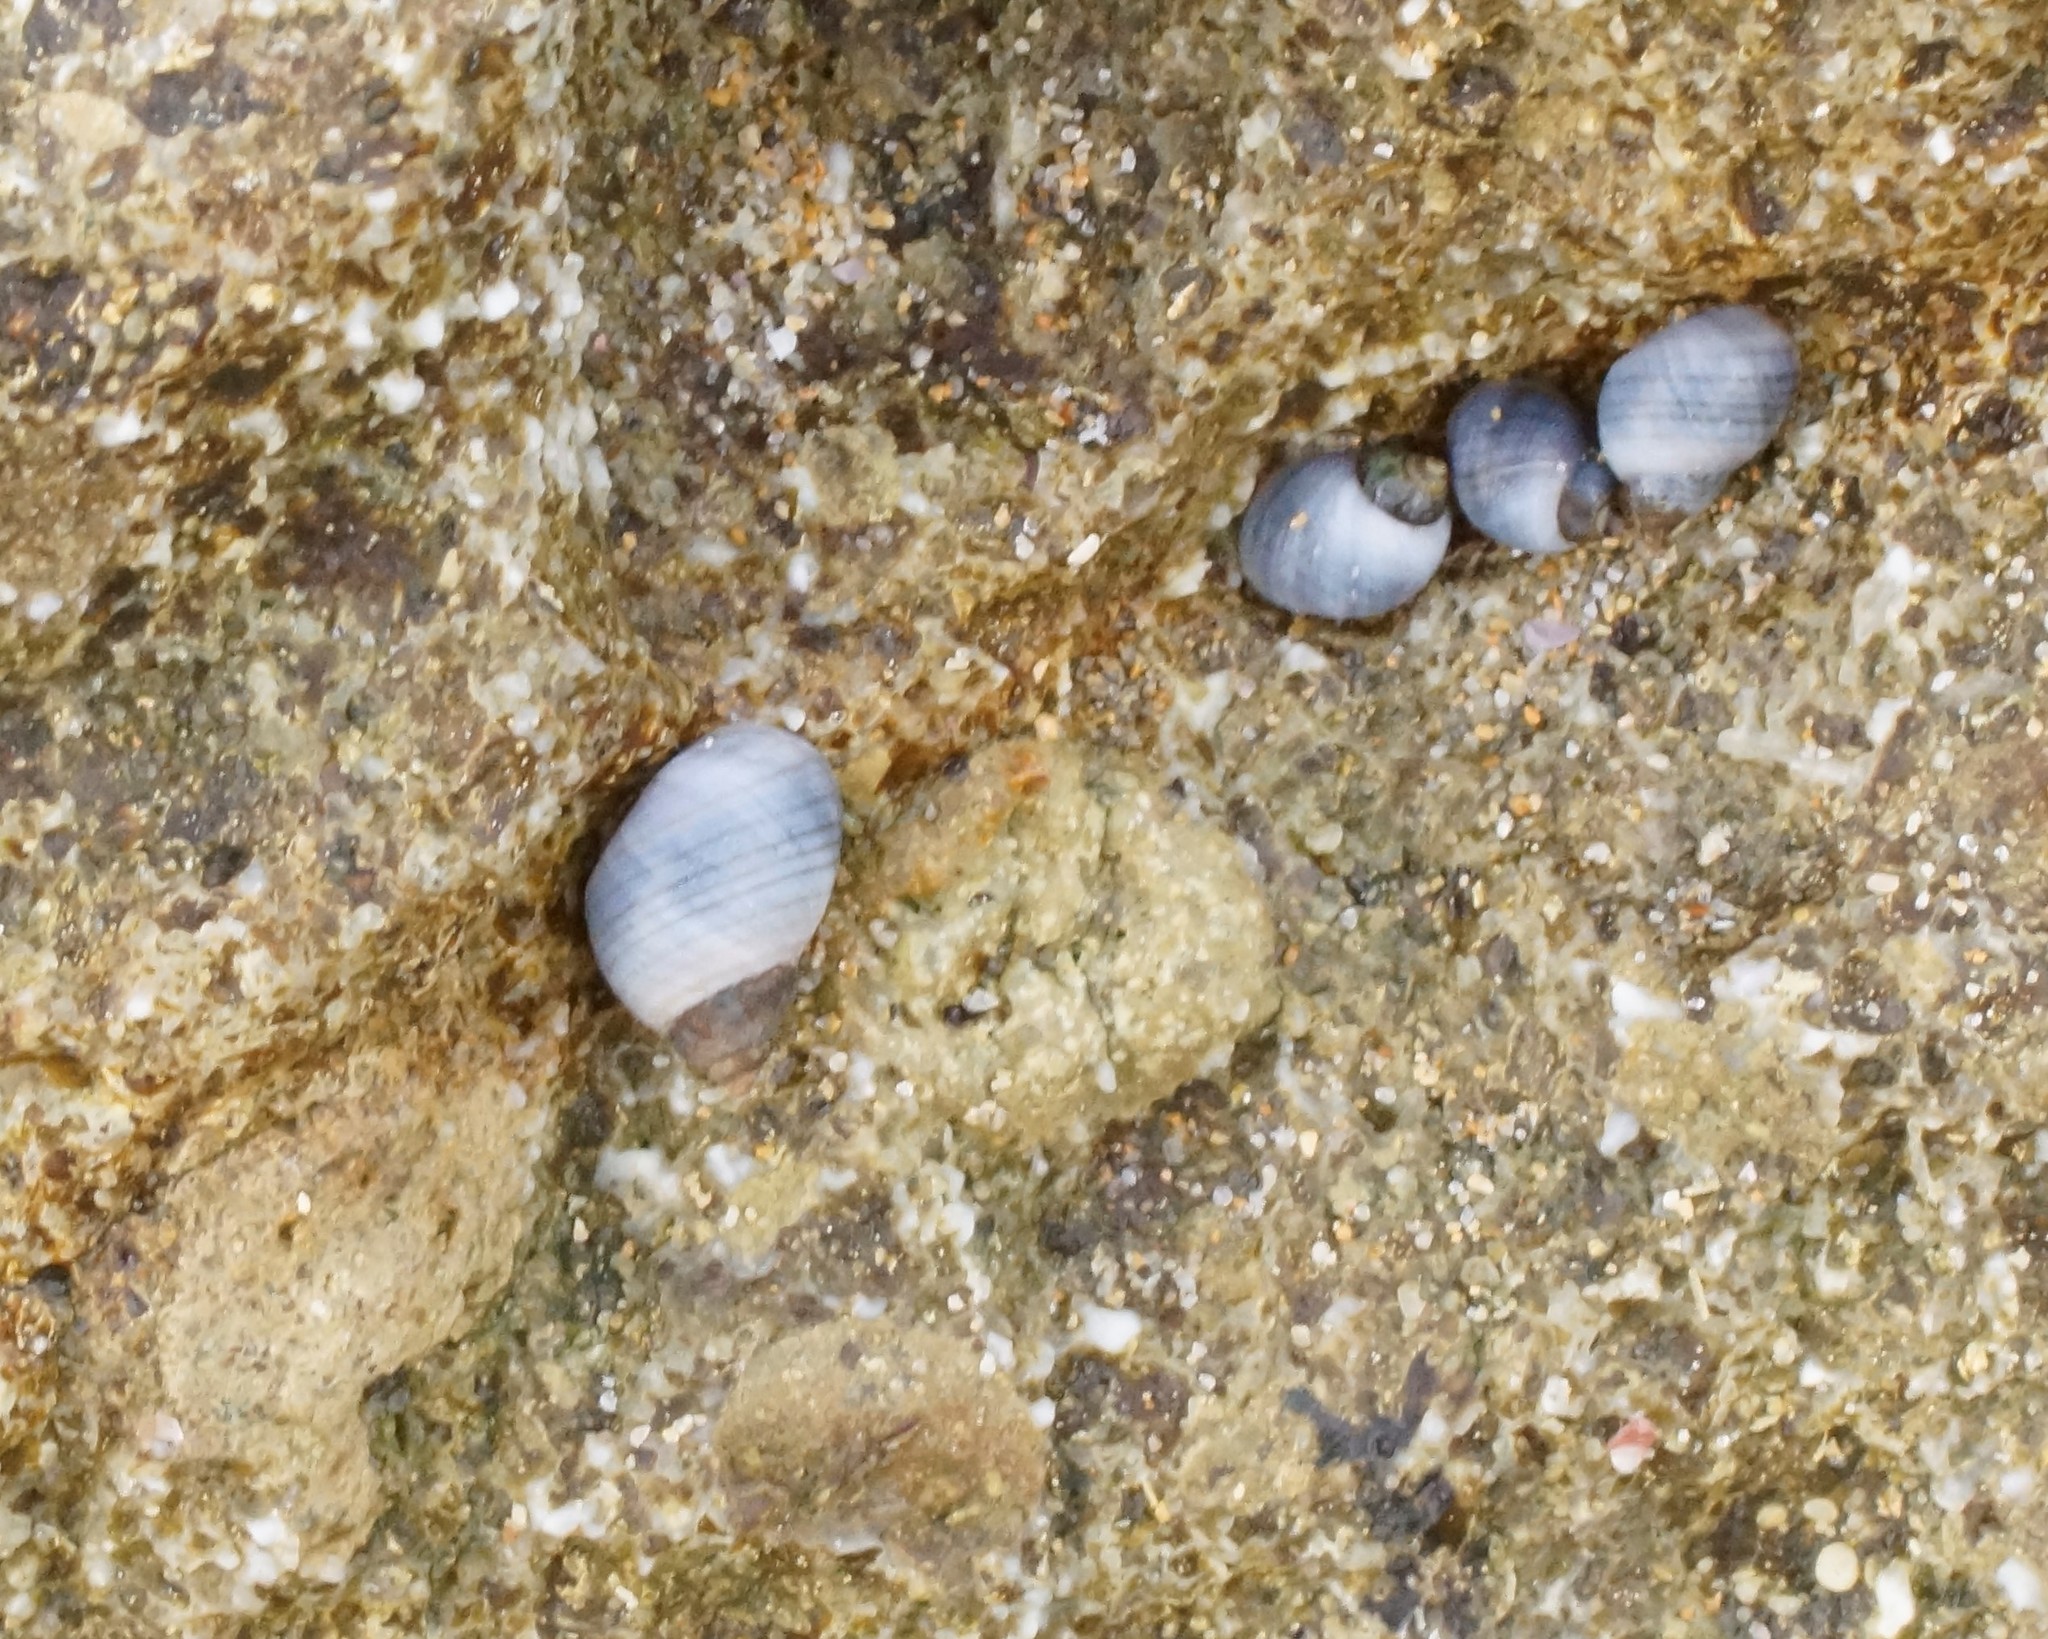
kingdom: Animalia
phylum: Mollusca
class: Gastropoda
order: Littorinimorpha
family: Littorinidae
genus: Austrolittorina
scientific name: Austrolittorina unifasciata
